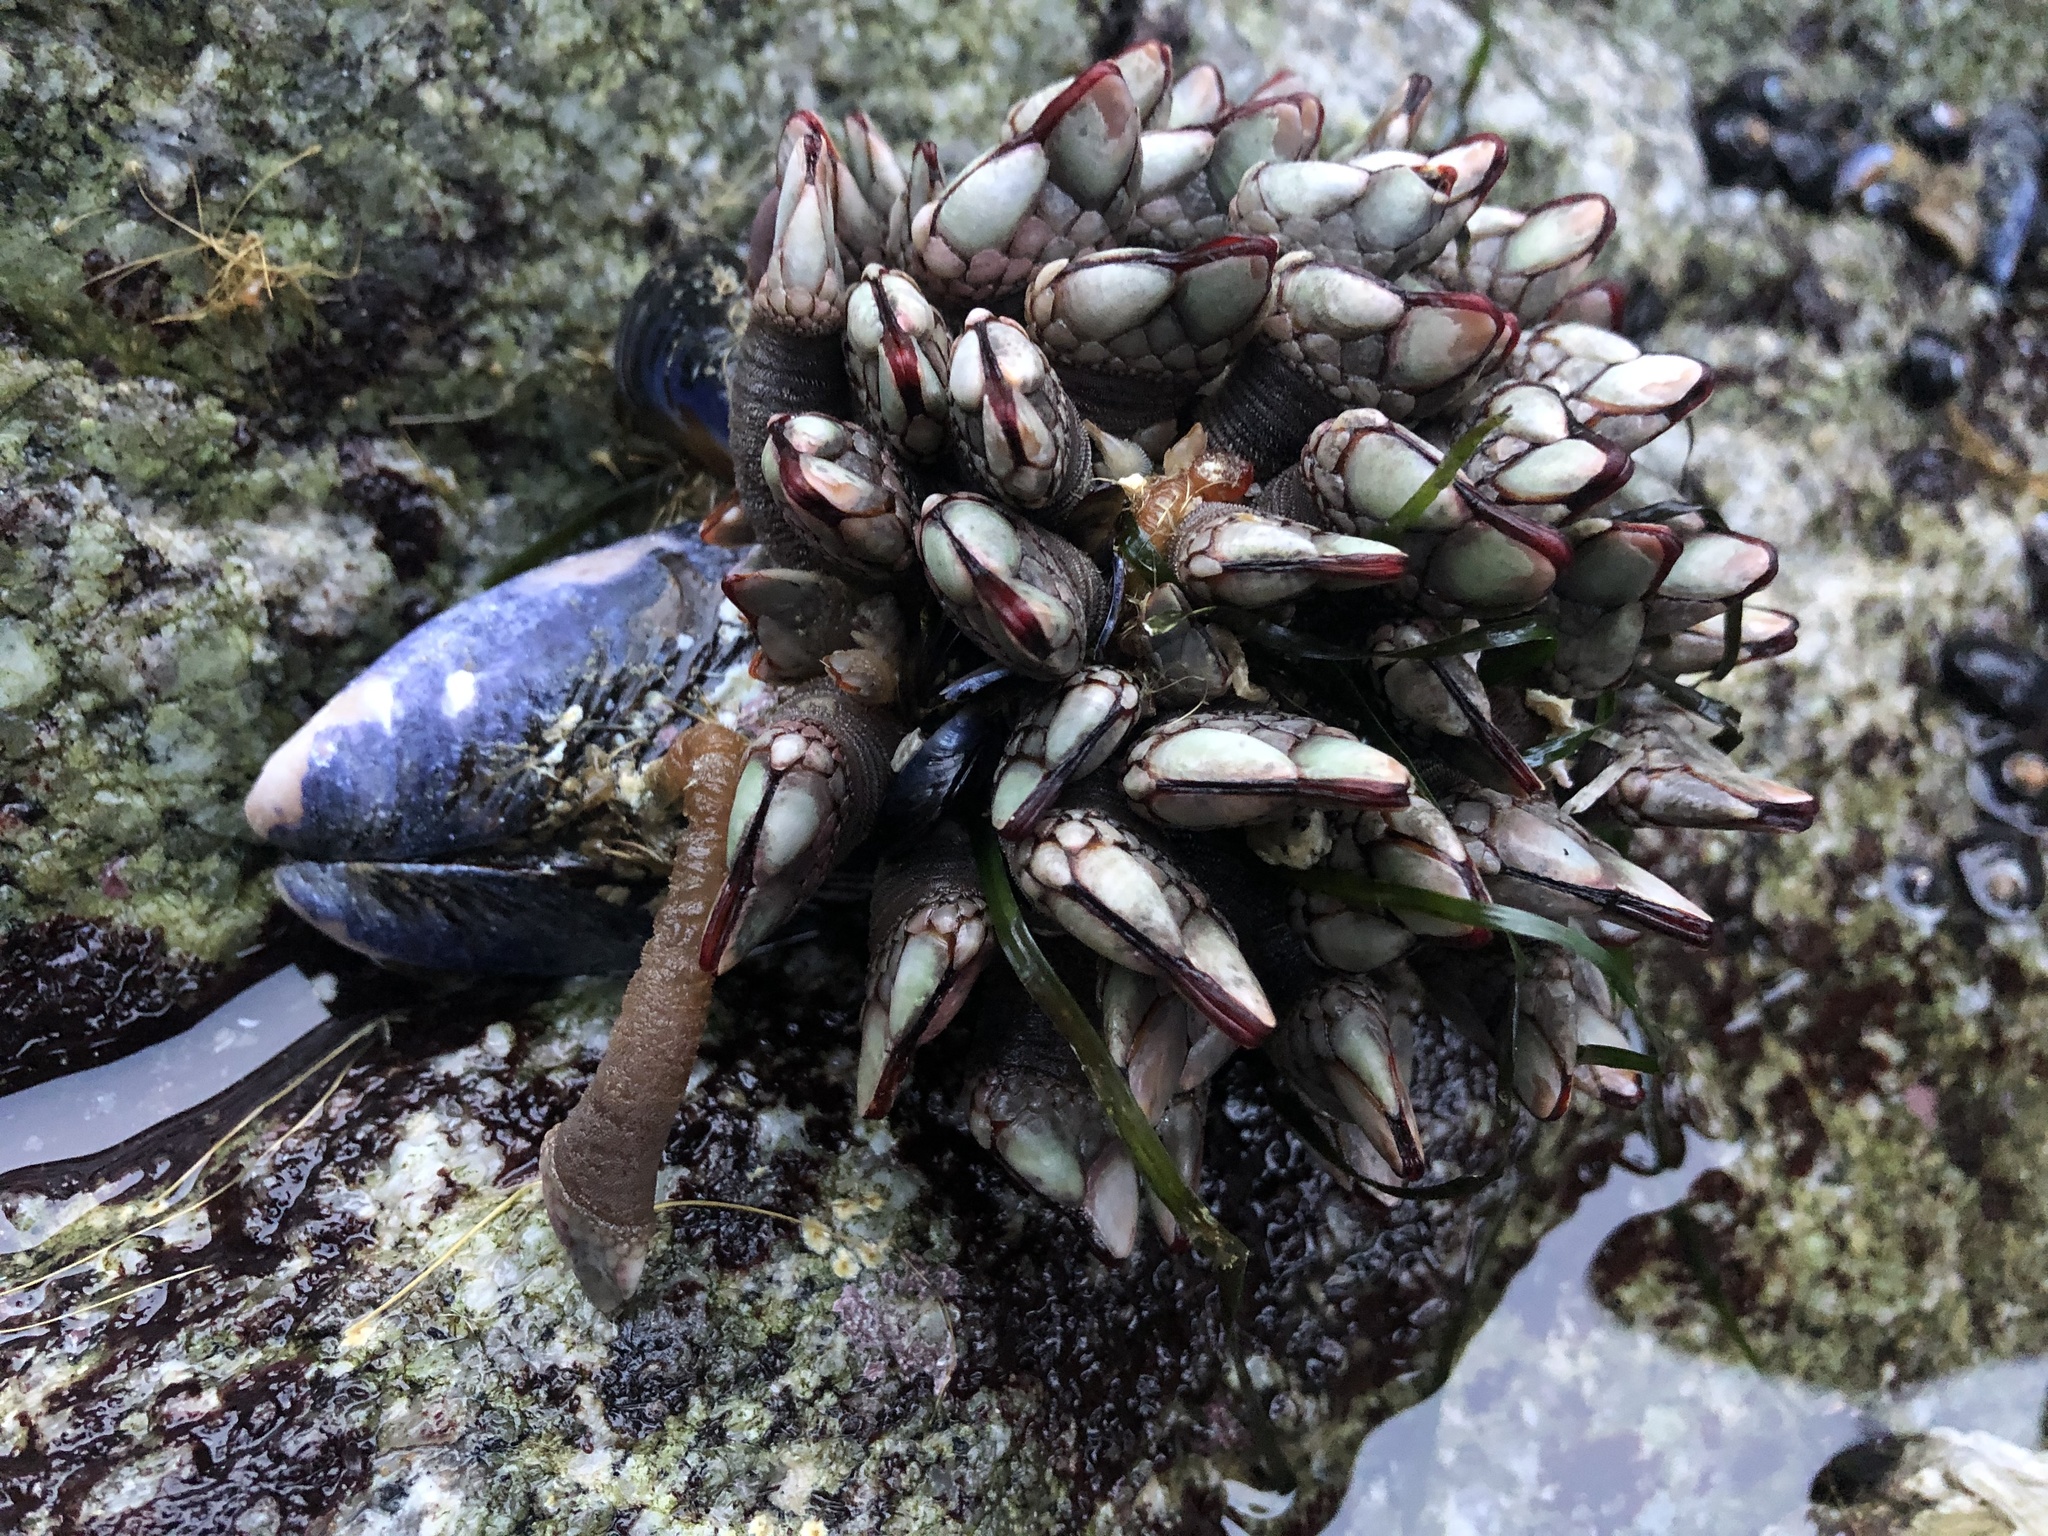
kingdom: Animalia
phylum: Arthropoda
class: Maxillopoda
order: Pedunculata
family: Pollicipedidae
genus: Pollicipes
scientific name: Pollicipes polymerus
